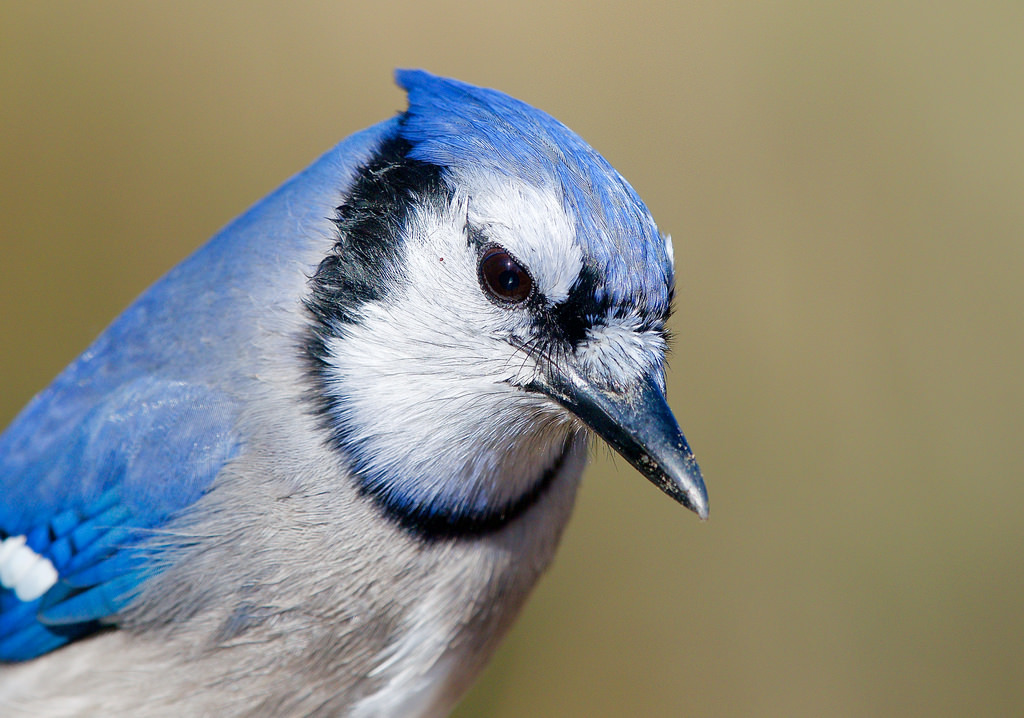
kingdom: Animalia
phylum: Chordata
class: Aves
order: Passeriformes
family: Corvidae
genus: Cyanocitta
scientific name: Cyanocitta cristata
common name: Blue jay
